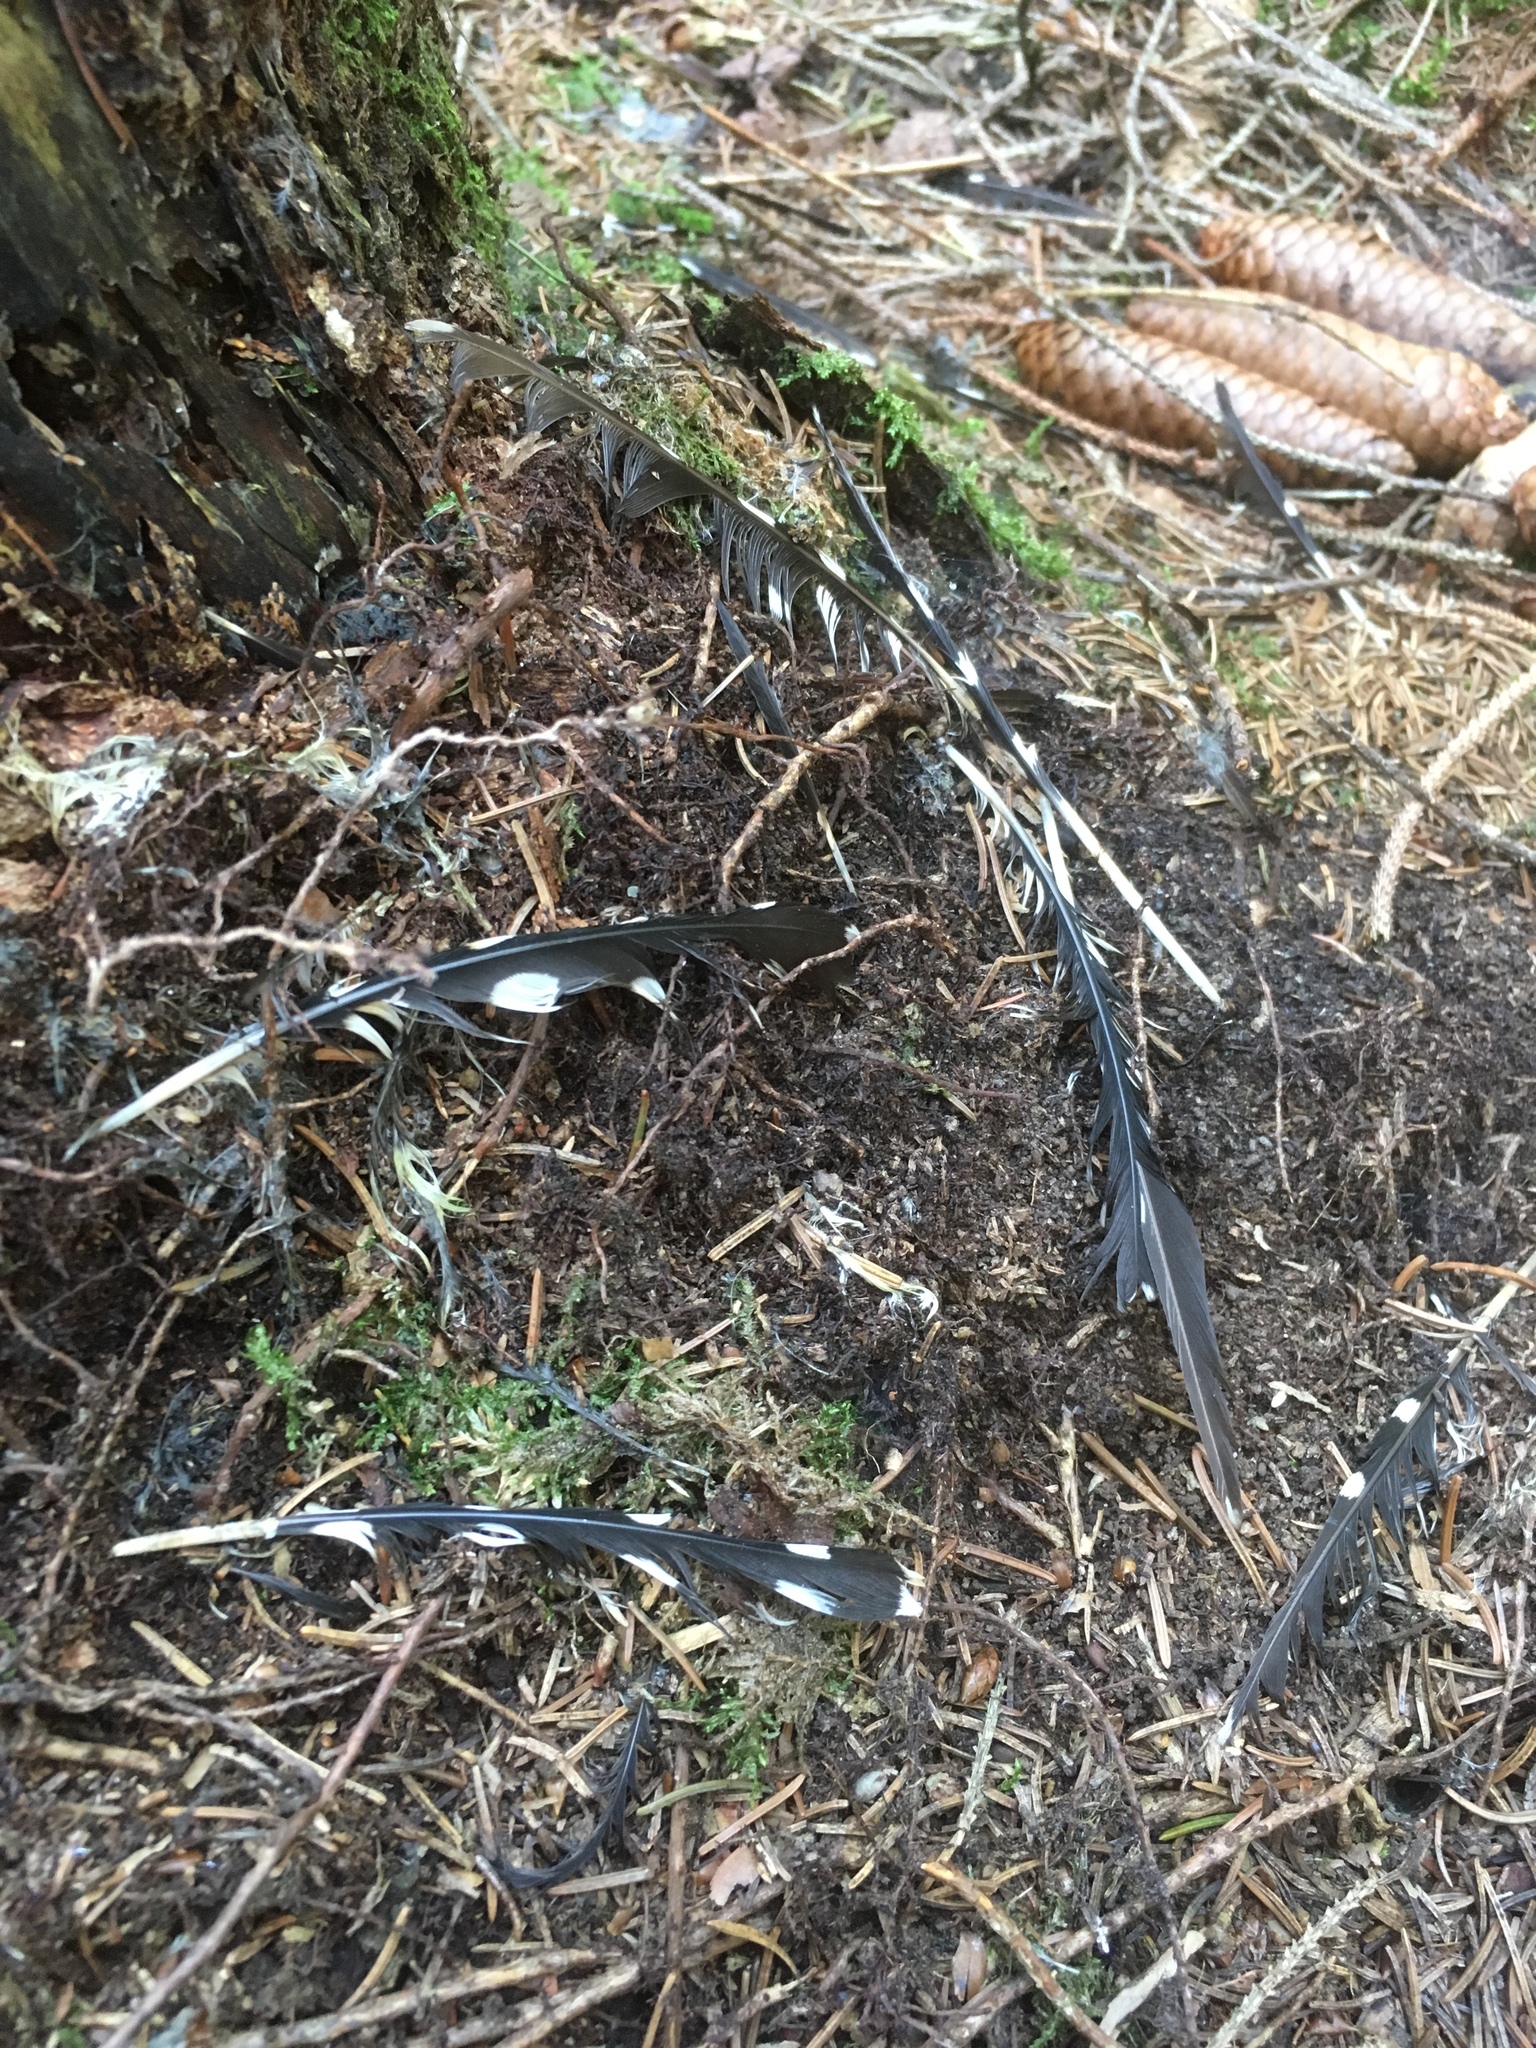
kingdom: Animalia
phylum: Chordata
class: Aves
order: Piciformes
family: Picidae
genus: Dendrocopos
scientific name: Dendrocopos major
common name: Great spotted woodpecker
